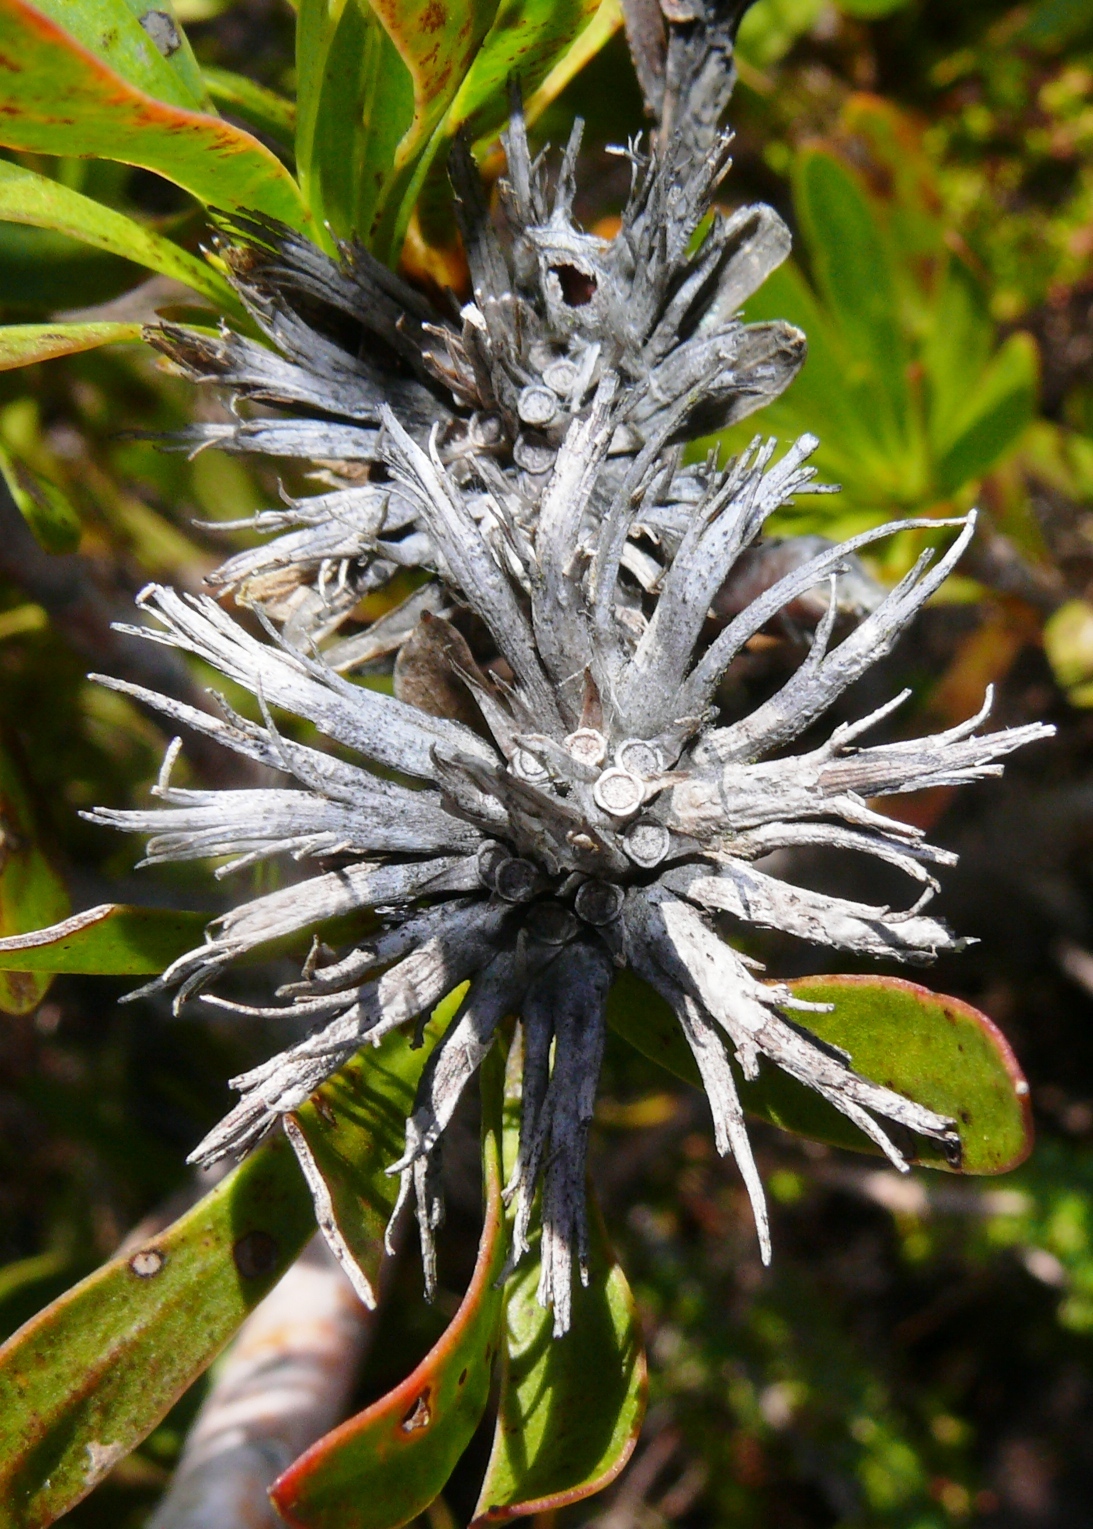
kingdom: Plantae
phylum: Tracheophyta
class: Magnoliopsida
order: Proteales
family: Proteaceae
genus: Aulax
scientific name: Aulax umbellata
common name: Broad-leaf featherbush
